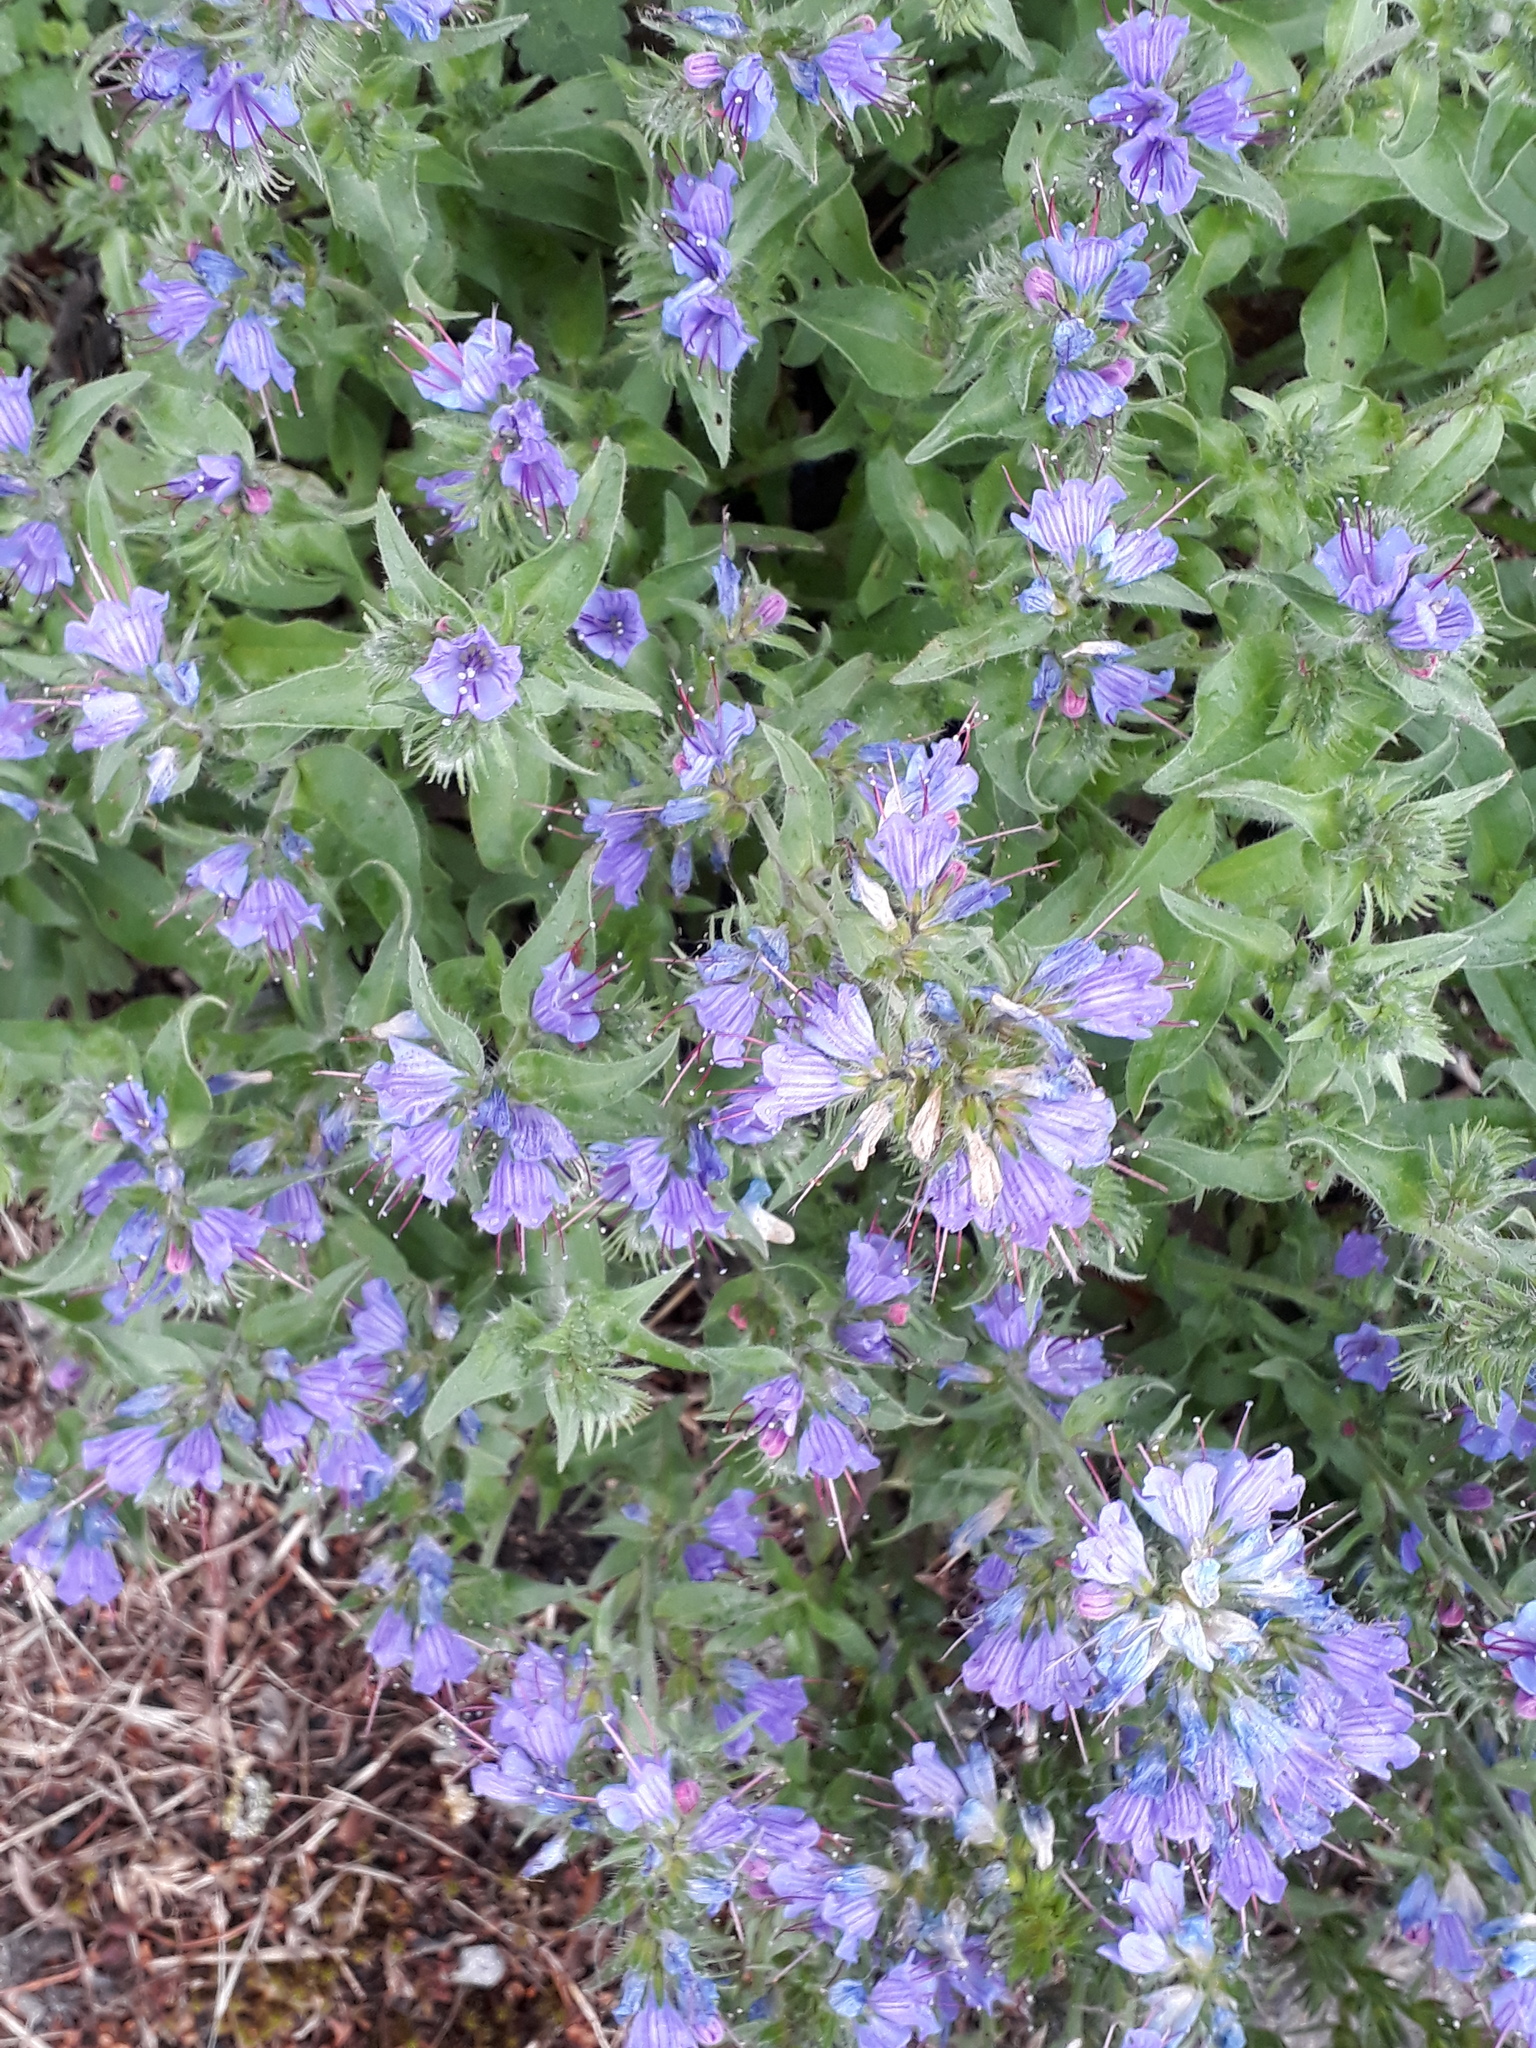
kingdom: Plantae
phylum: Tracheophyta
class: Magnoliopsida
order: Boraginales
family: Boraginaceae
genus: Echium
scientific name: Echium vulgare
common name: Common viper's bugloss
